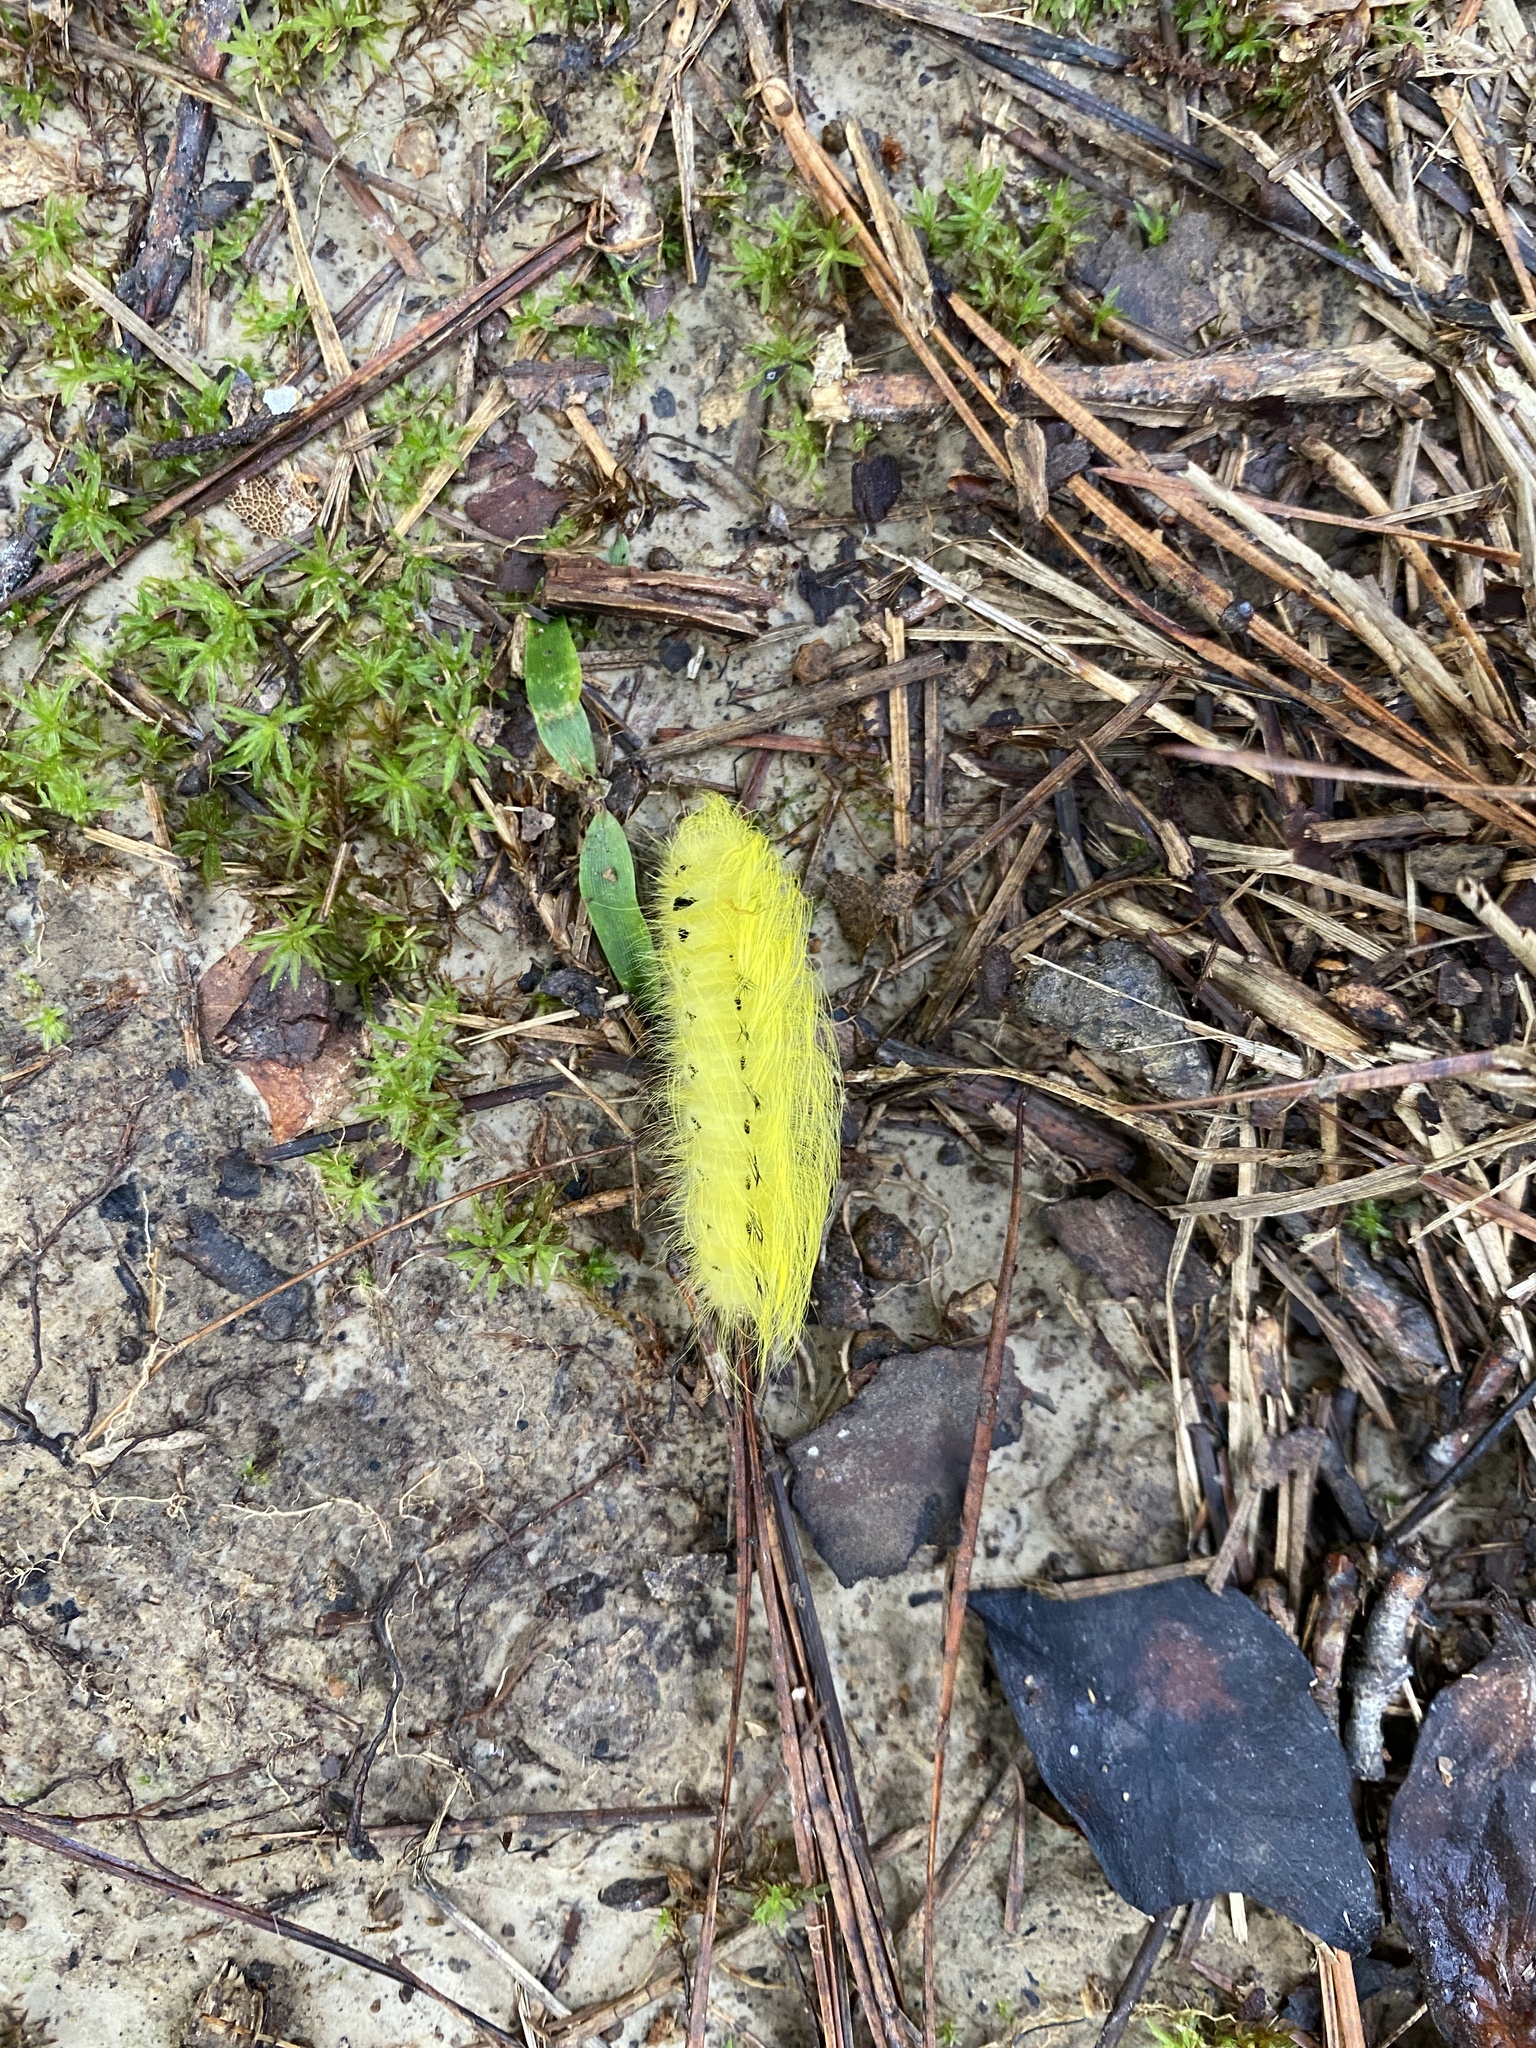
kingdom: Animalia
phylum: Arthropoda
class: Insecta
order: Lepidoptera
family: Apatelodidae
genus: Hygrochroa
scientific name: Hygrochroa Apatelodes torrefacta
